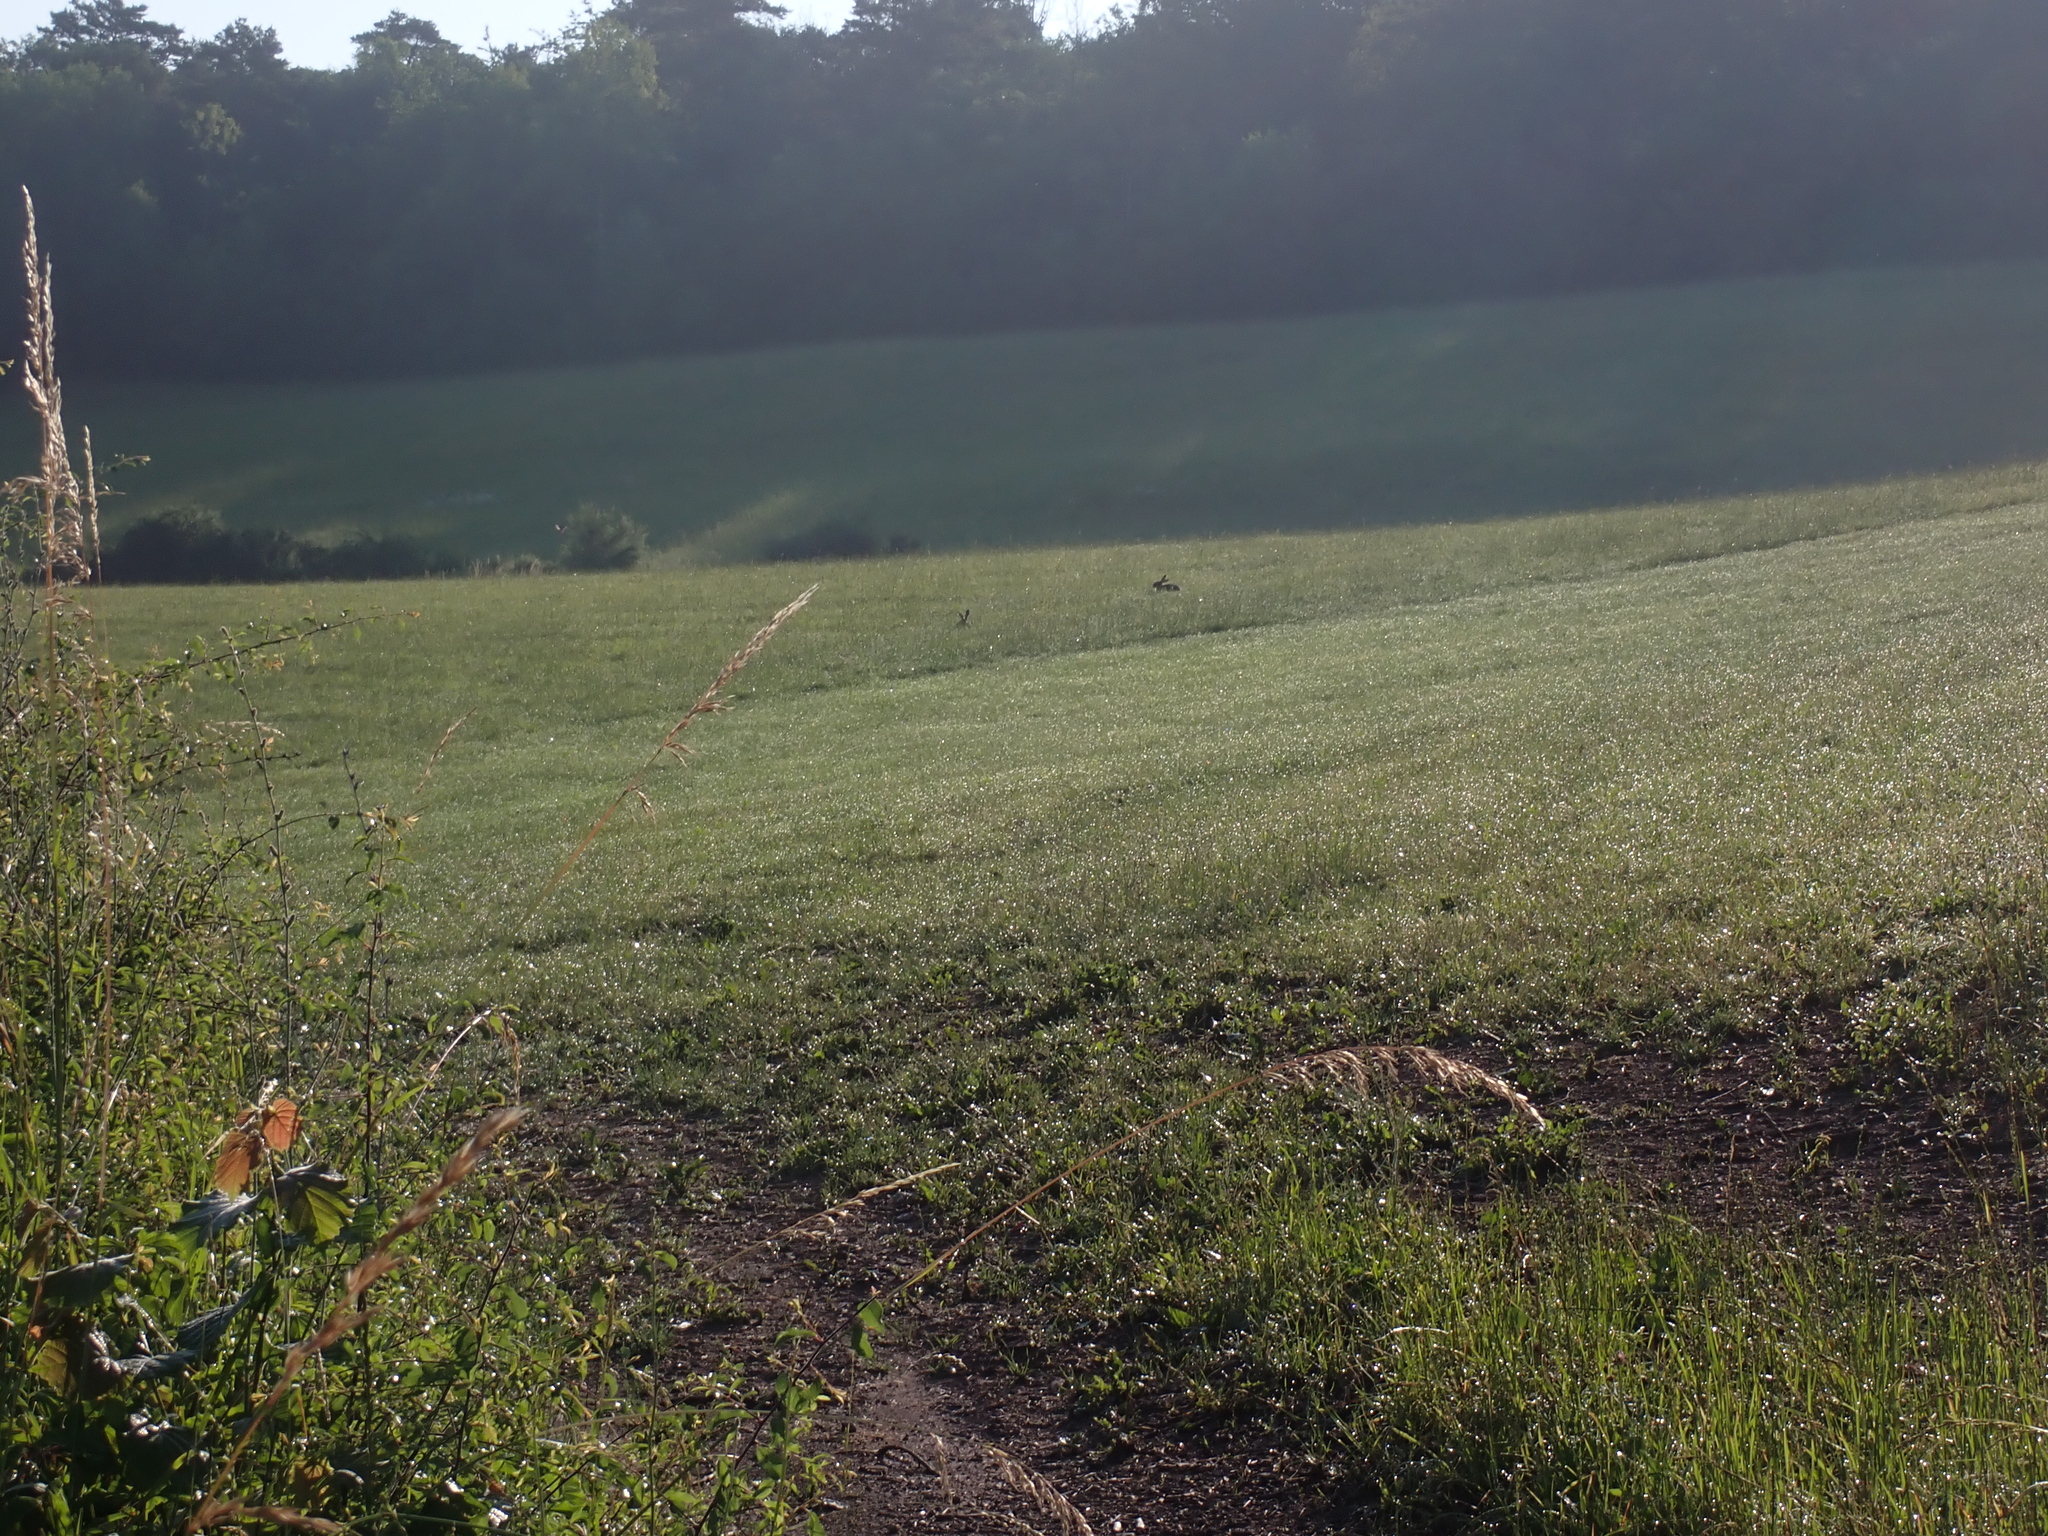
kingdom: Animalia
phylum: Chordata
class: Mammalia
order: Lagomorpha
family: Leporidae
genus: Lepus
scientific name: Lepus europaeus
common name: European hare
